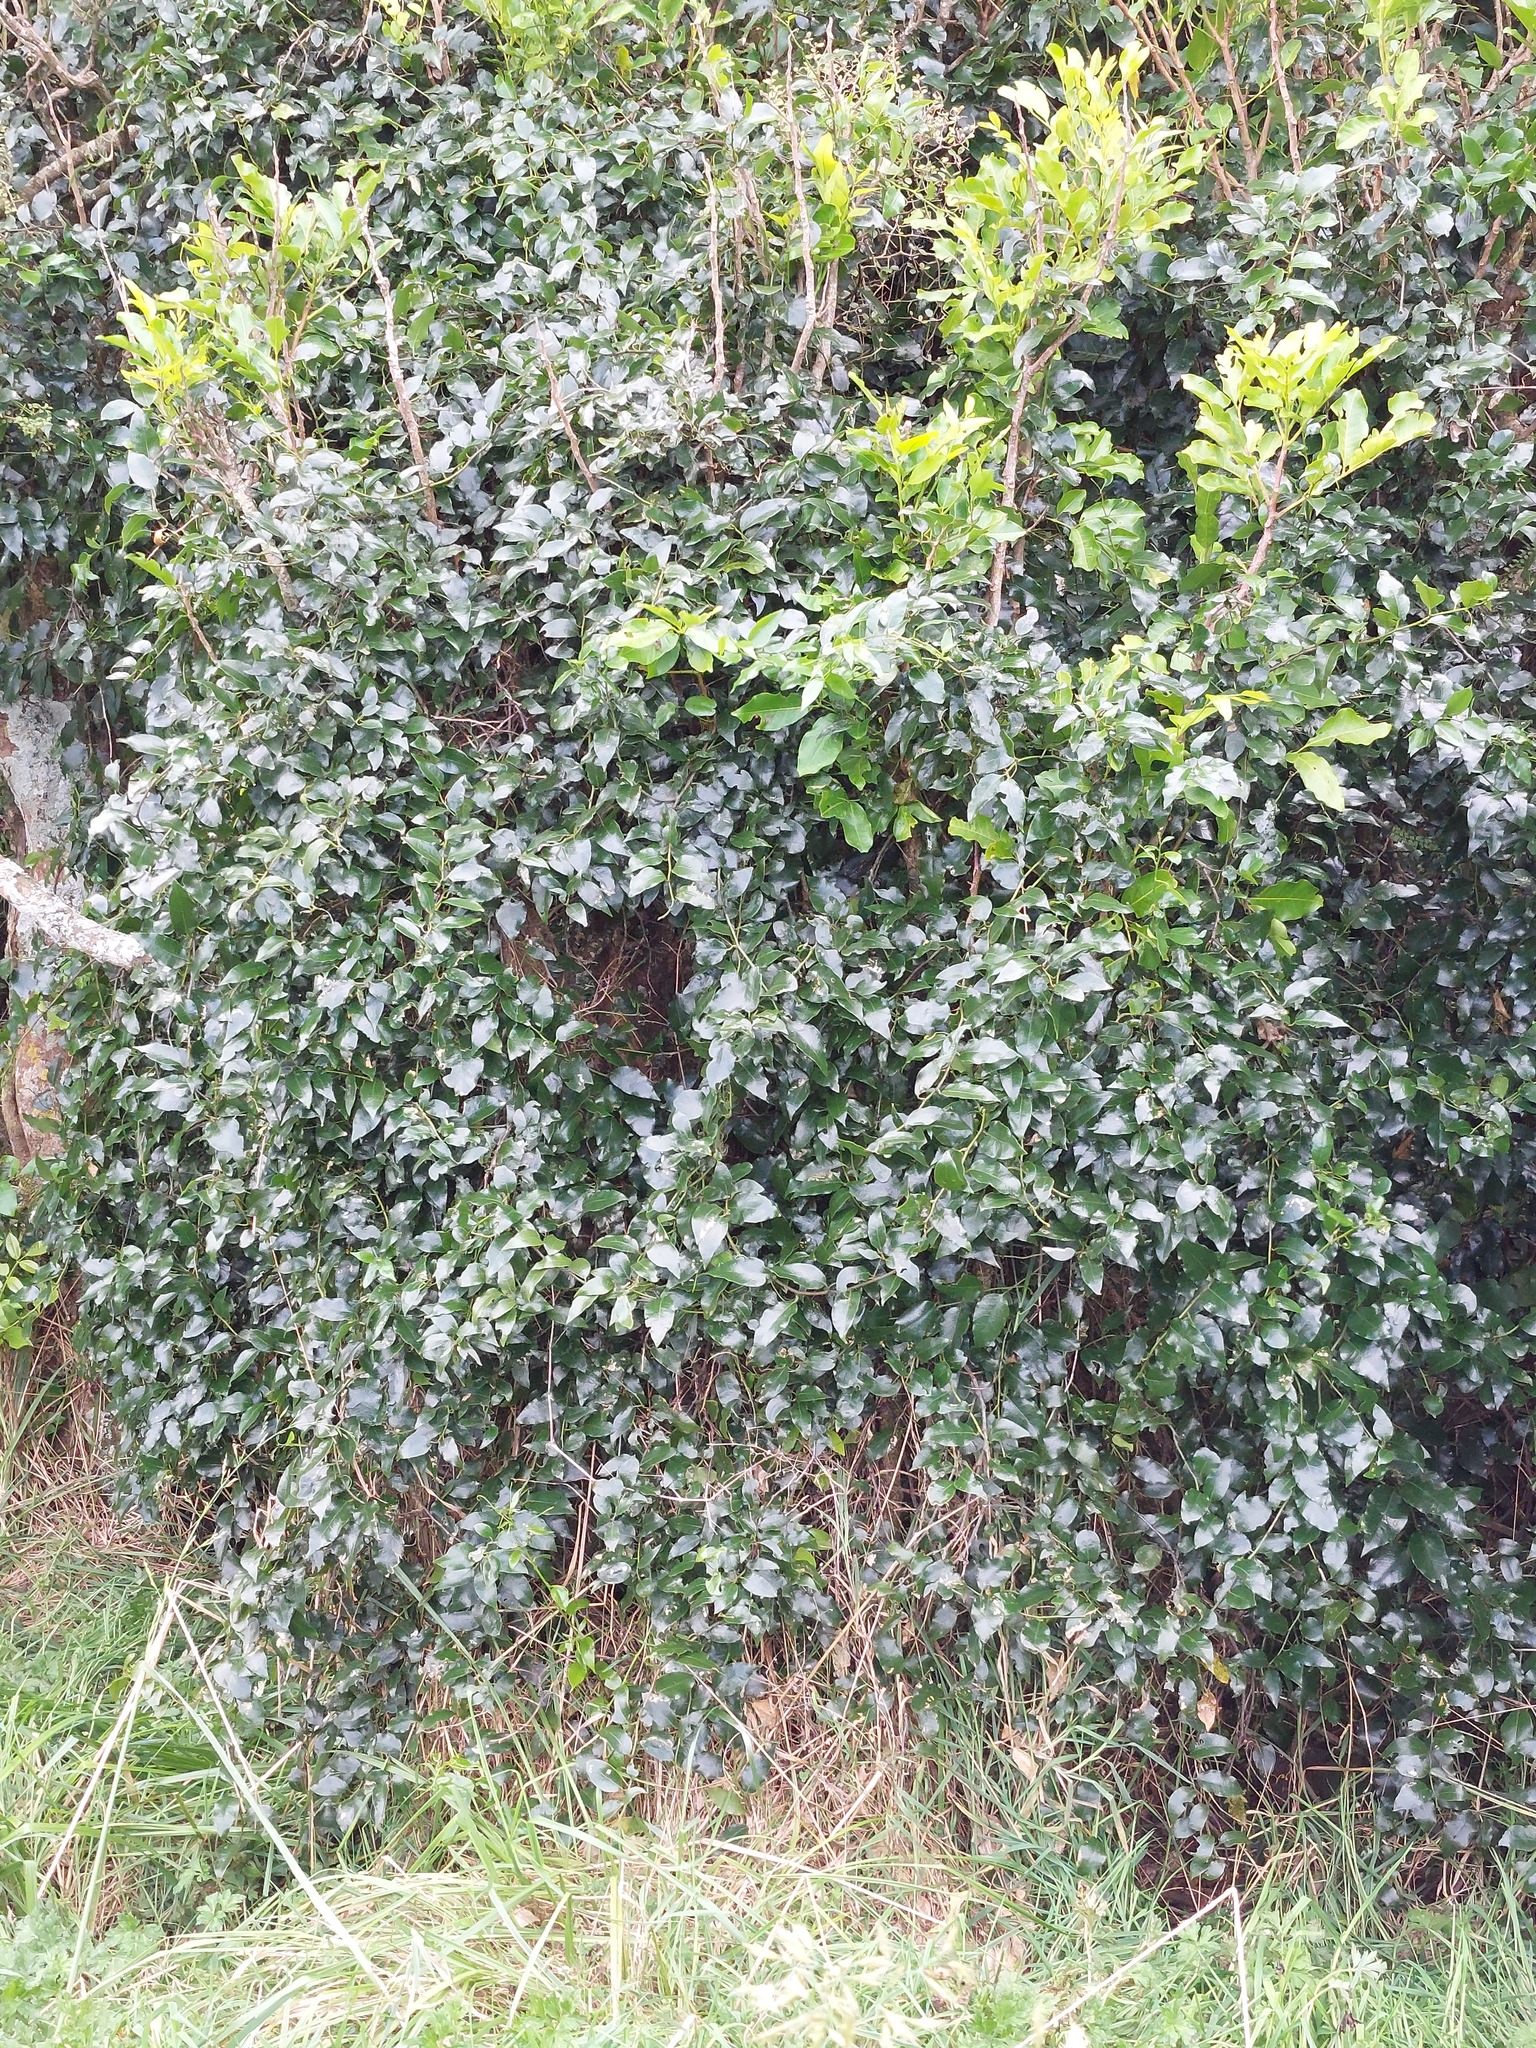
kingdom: Plantae
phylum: Tracheophyta
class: Magnoliopsida
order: Malpighiales
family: Passifloraceae
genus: Passiflora
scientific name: Passiflora tetrandra
